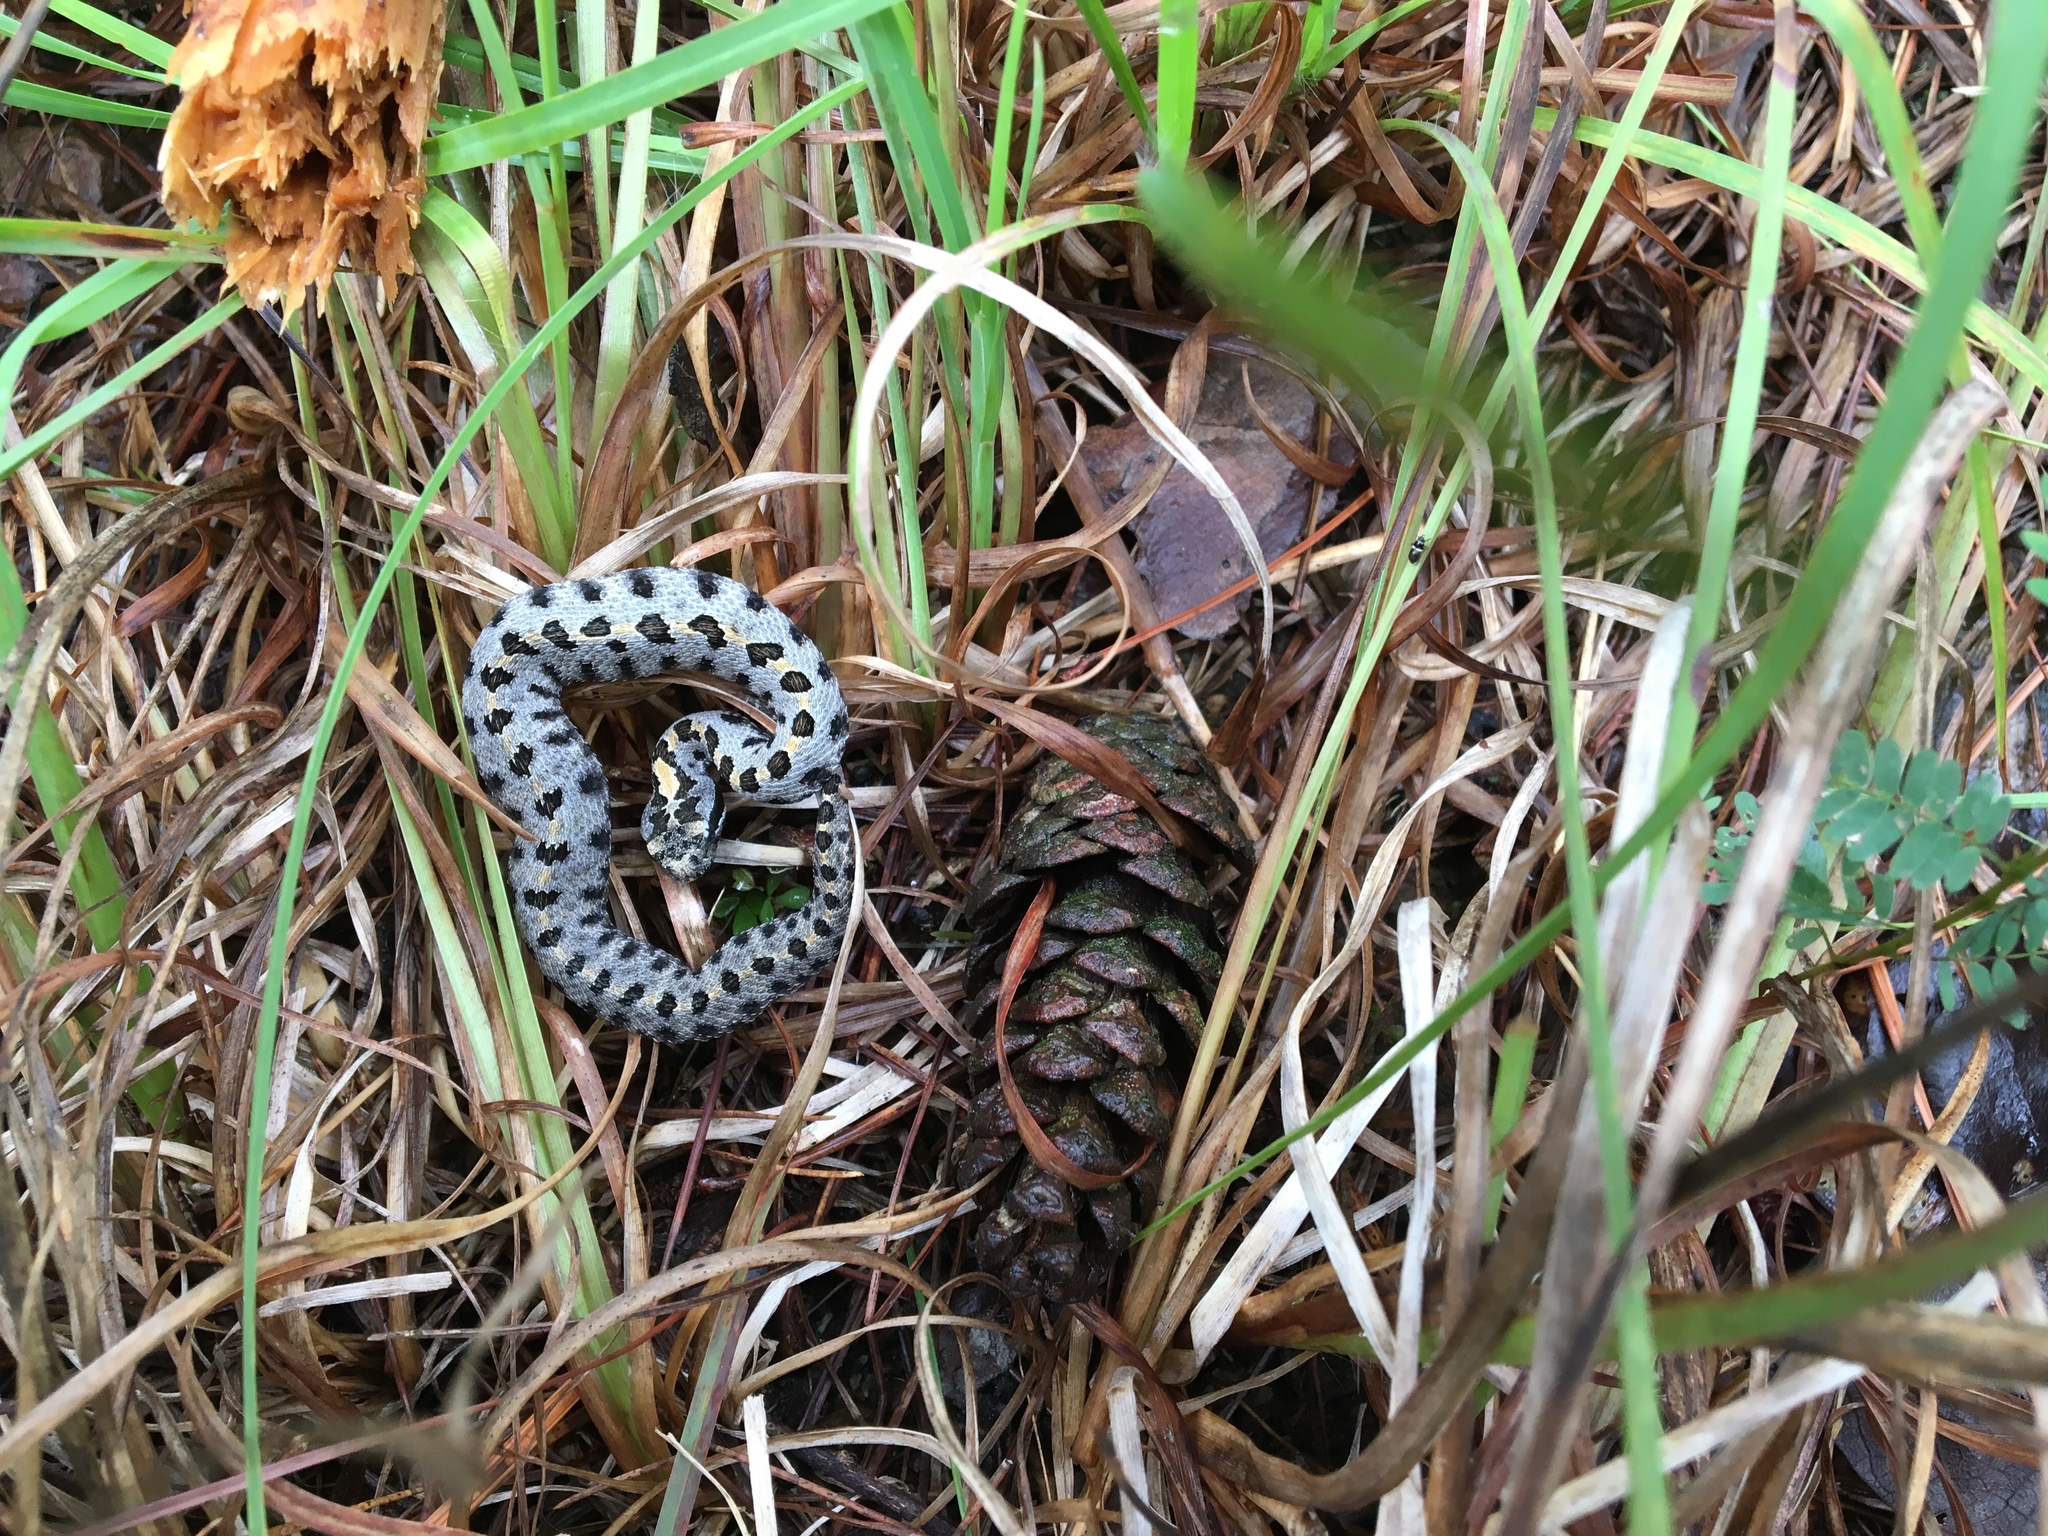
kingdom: Animalia
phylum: Chordata
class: Squamata
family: Viperidae
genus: Sistrurus
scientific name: Sistrurus miliarius
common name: Pygmy rattlesnake
